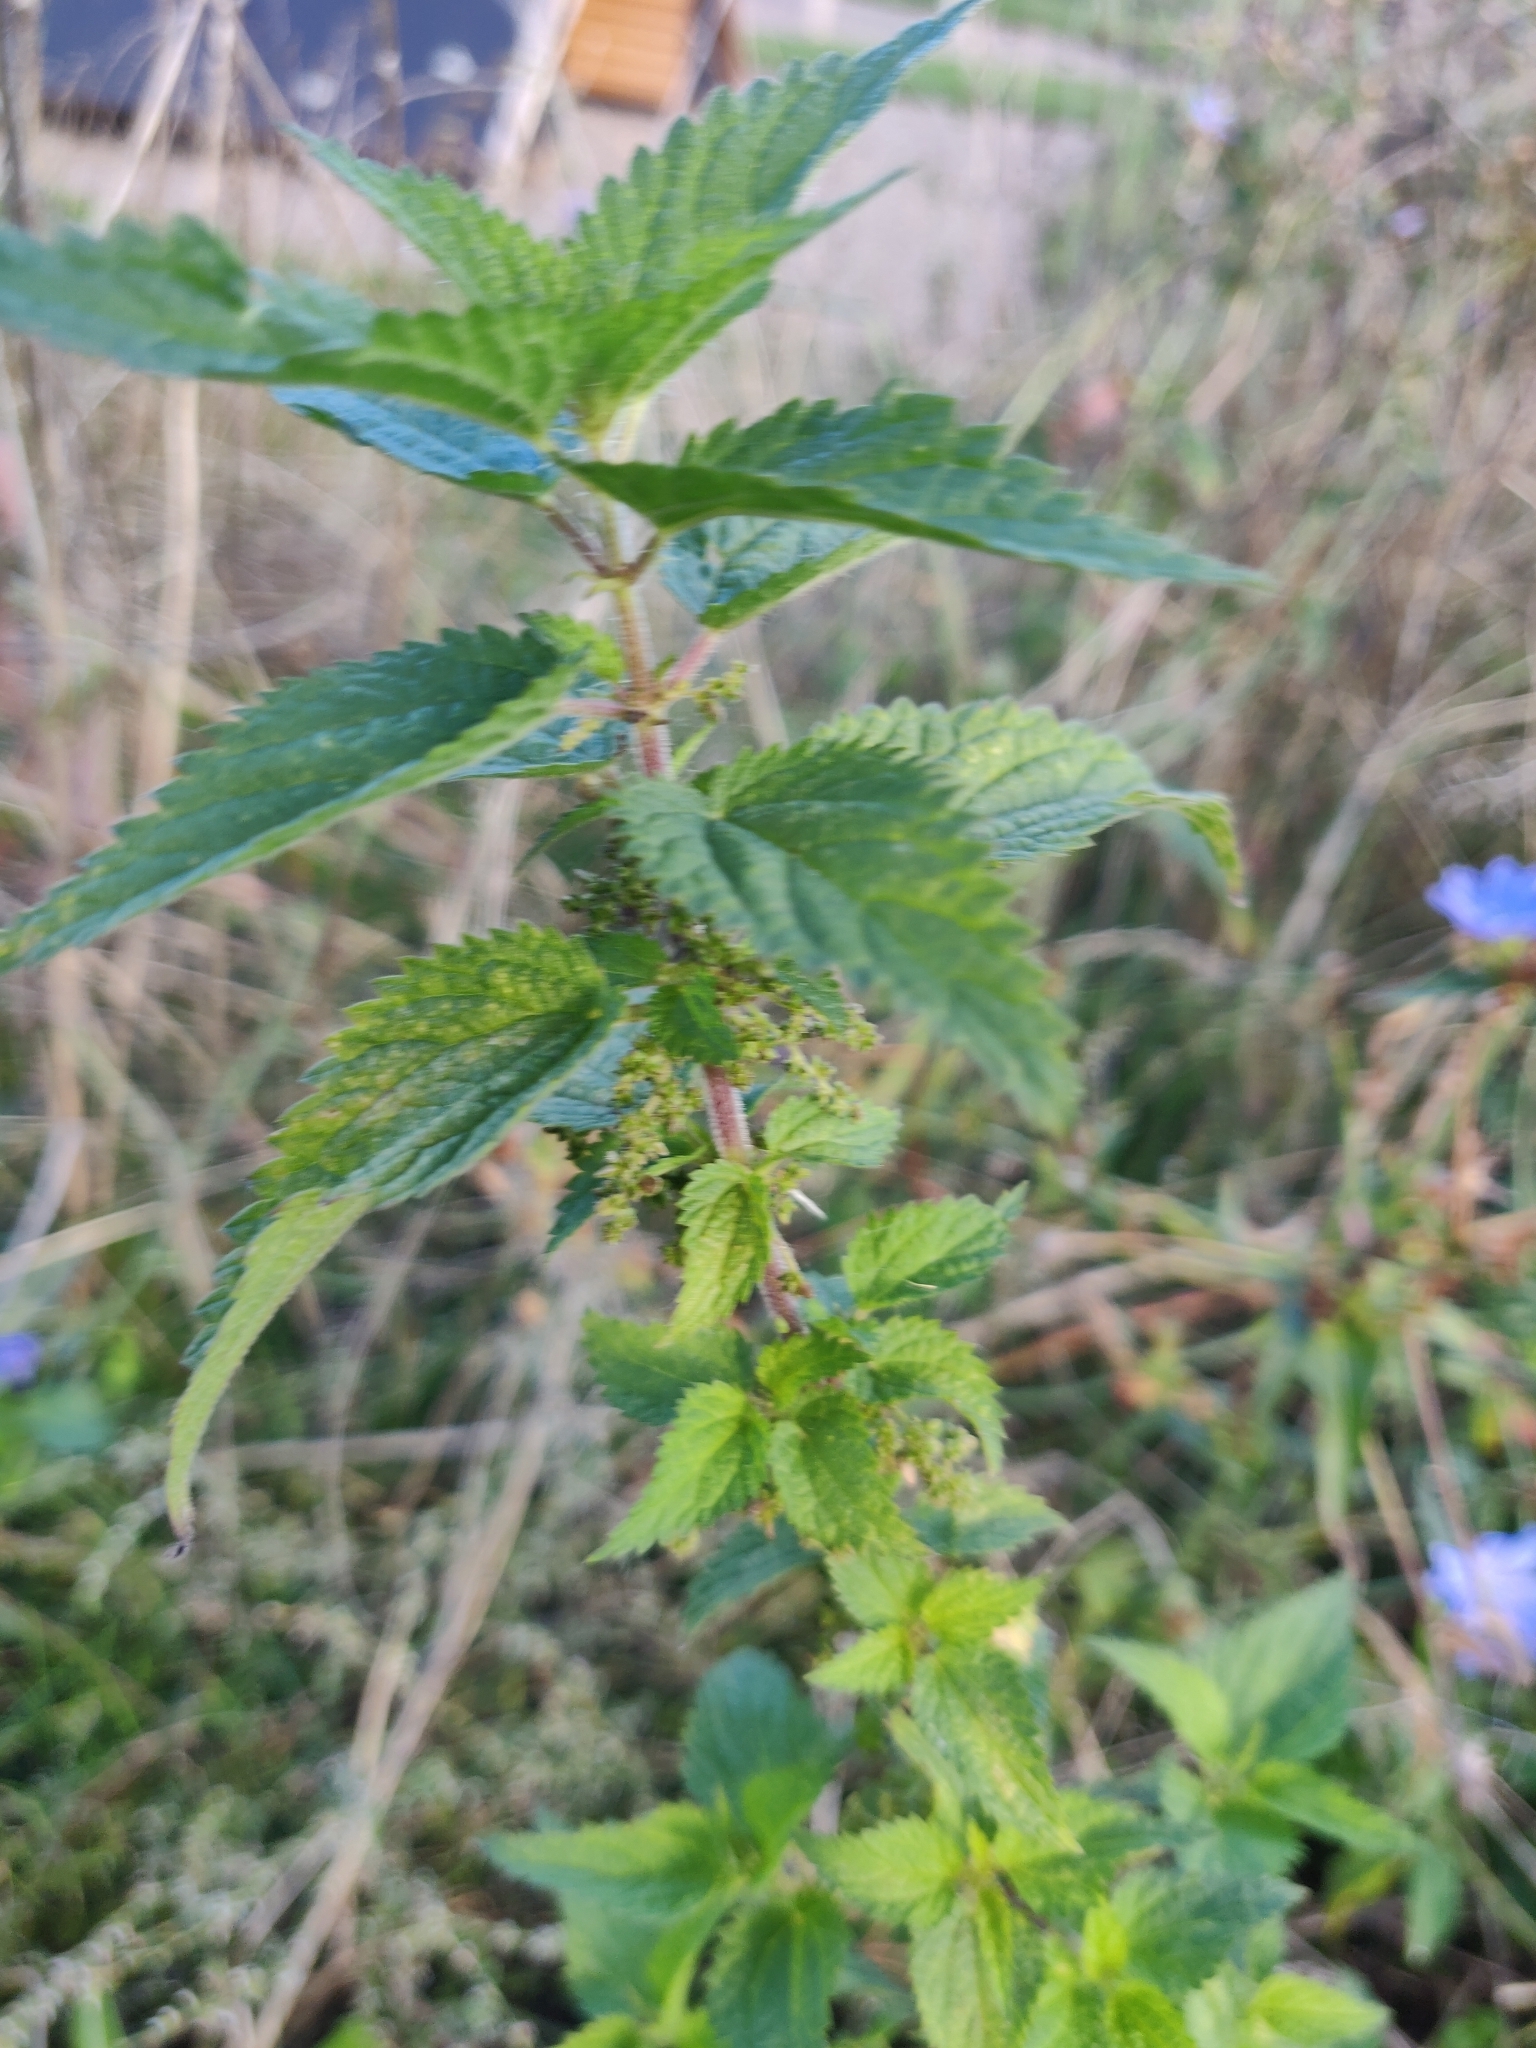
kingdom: Plantae
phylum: Tracheophyta
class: Magnoliopsida
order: Rosales
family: Urticaceae
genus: Urtica
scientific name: Urtica dioica
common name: Common nettle
